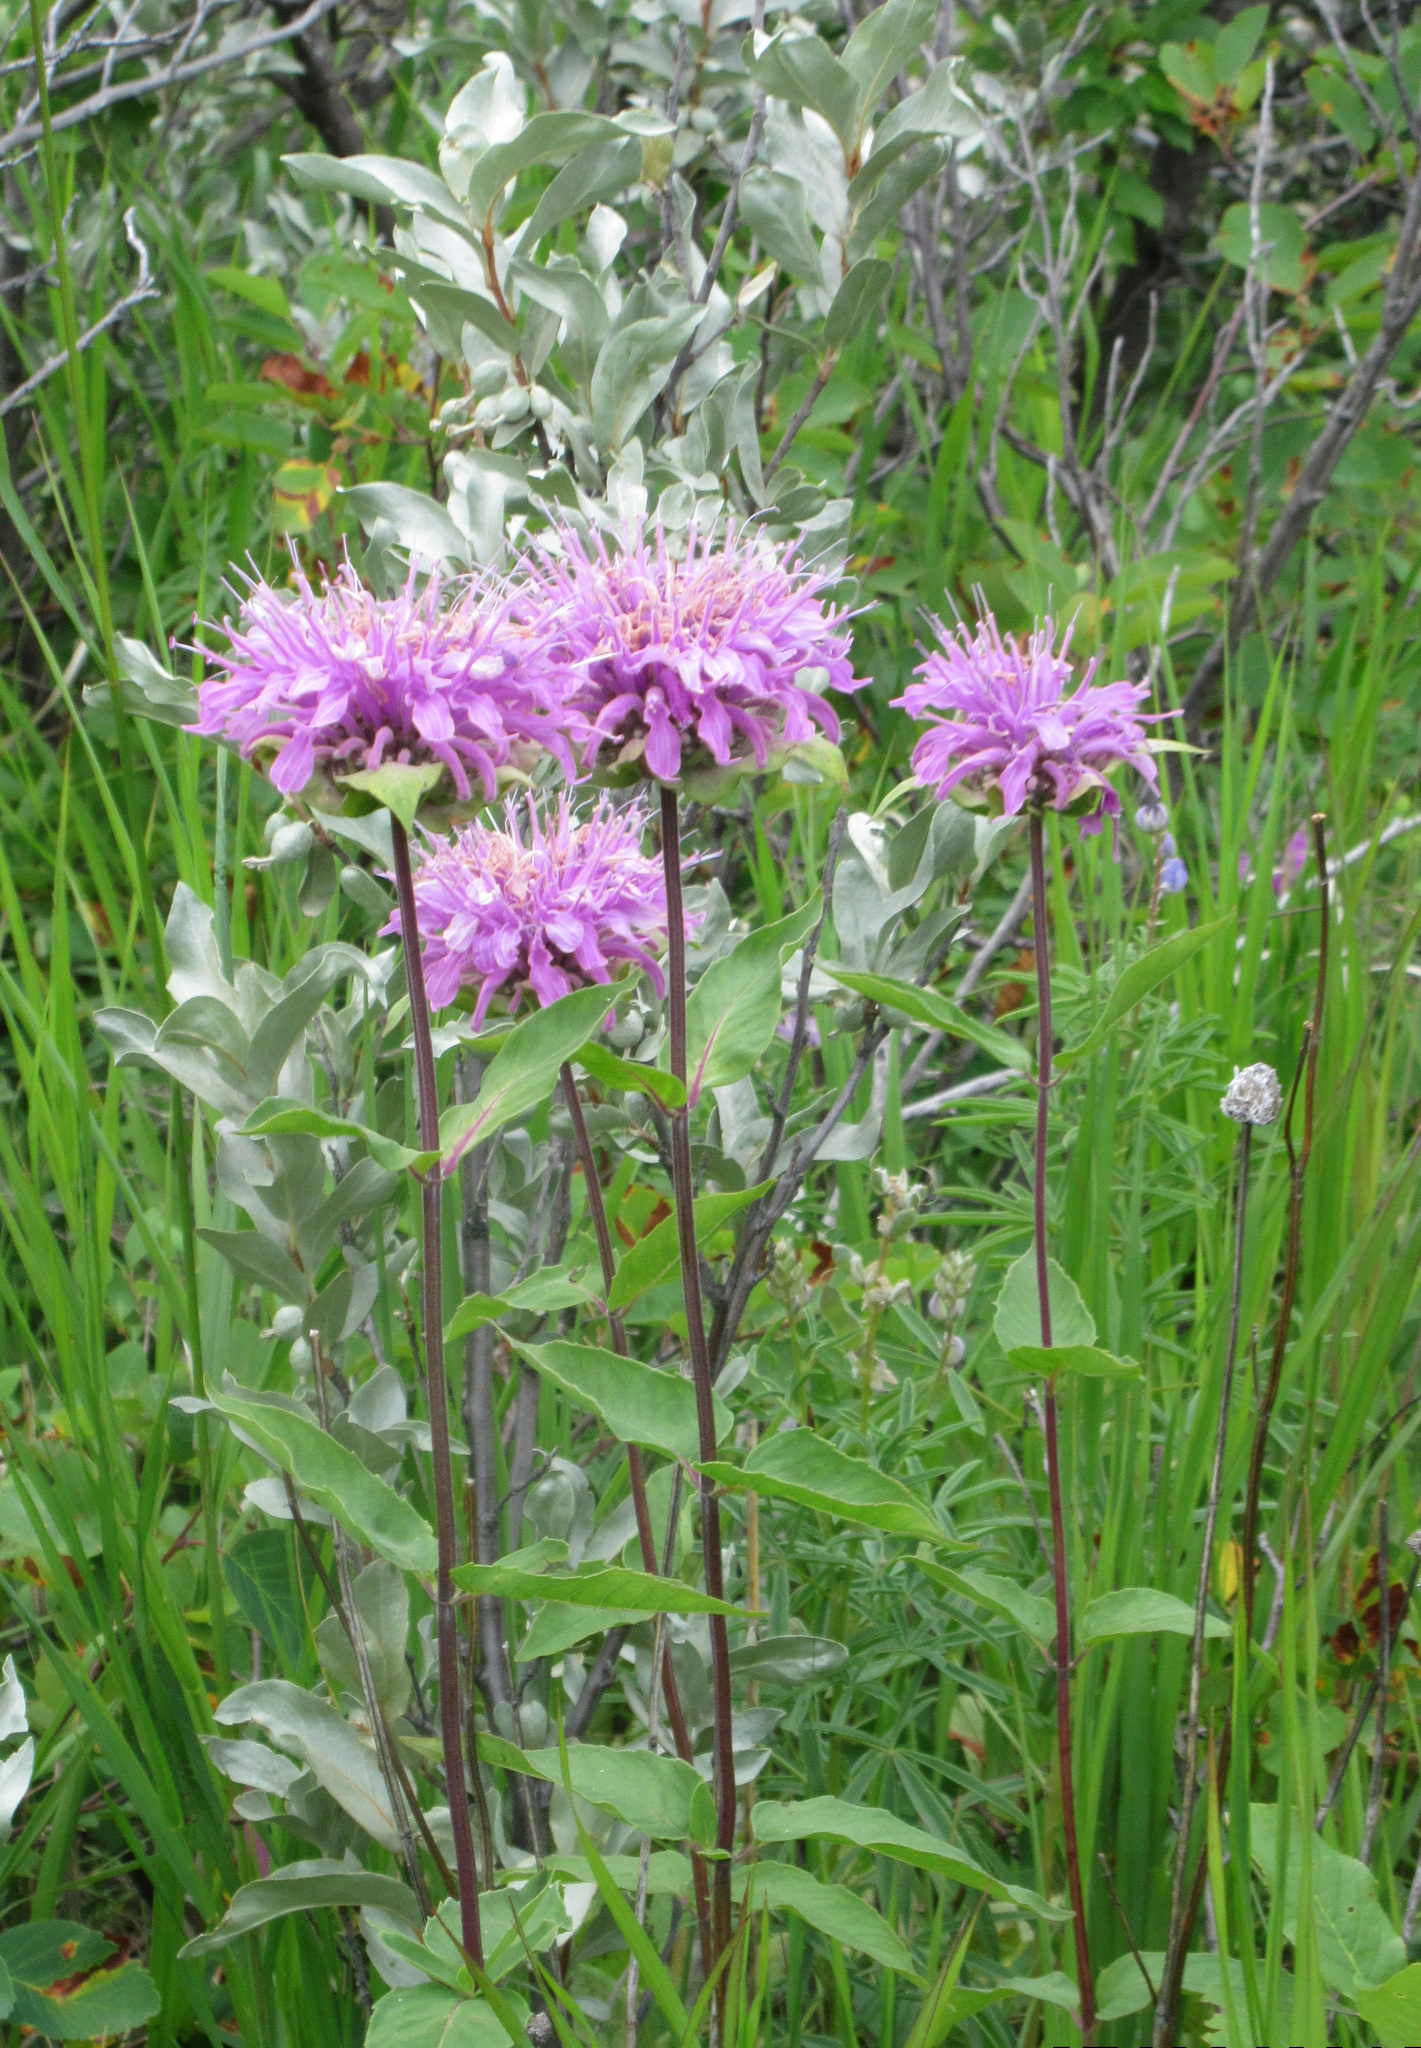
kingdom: Plantae
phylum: Tracheophyta
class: Magnoliopsida
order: Lamiales
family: Lamiaceae
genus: Monarda
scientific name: Monarda fistulosa
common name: Purple beebalm
